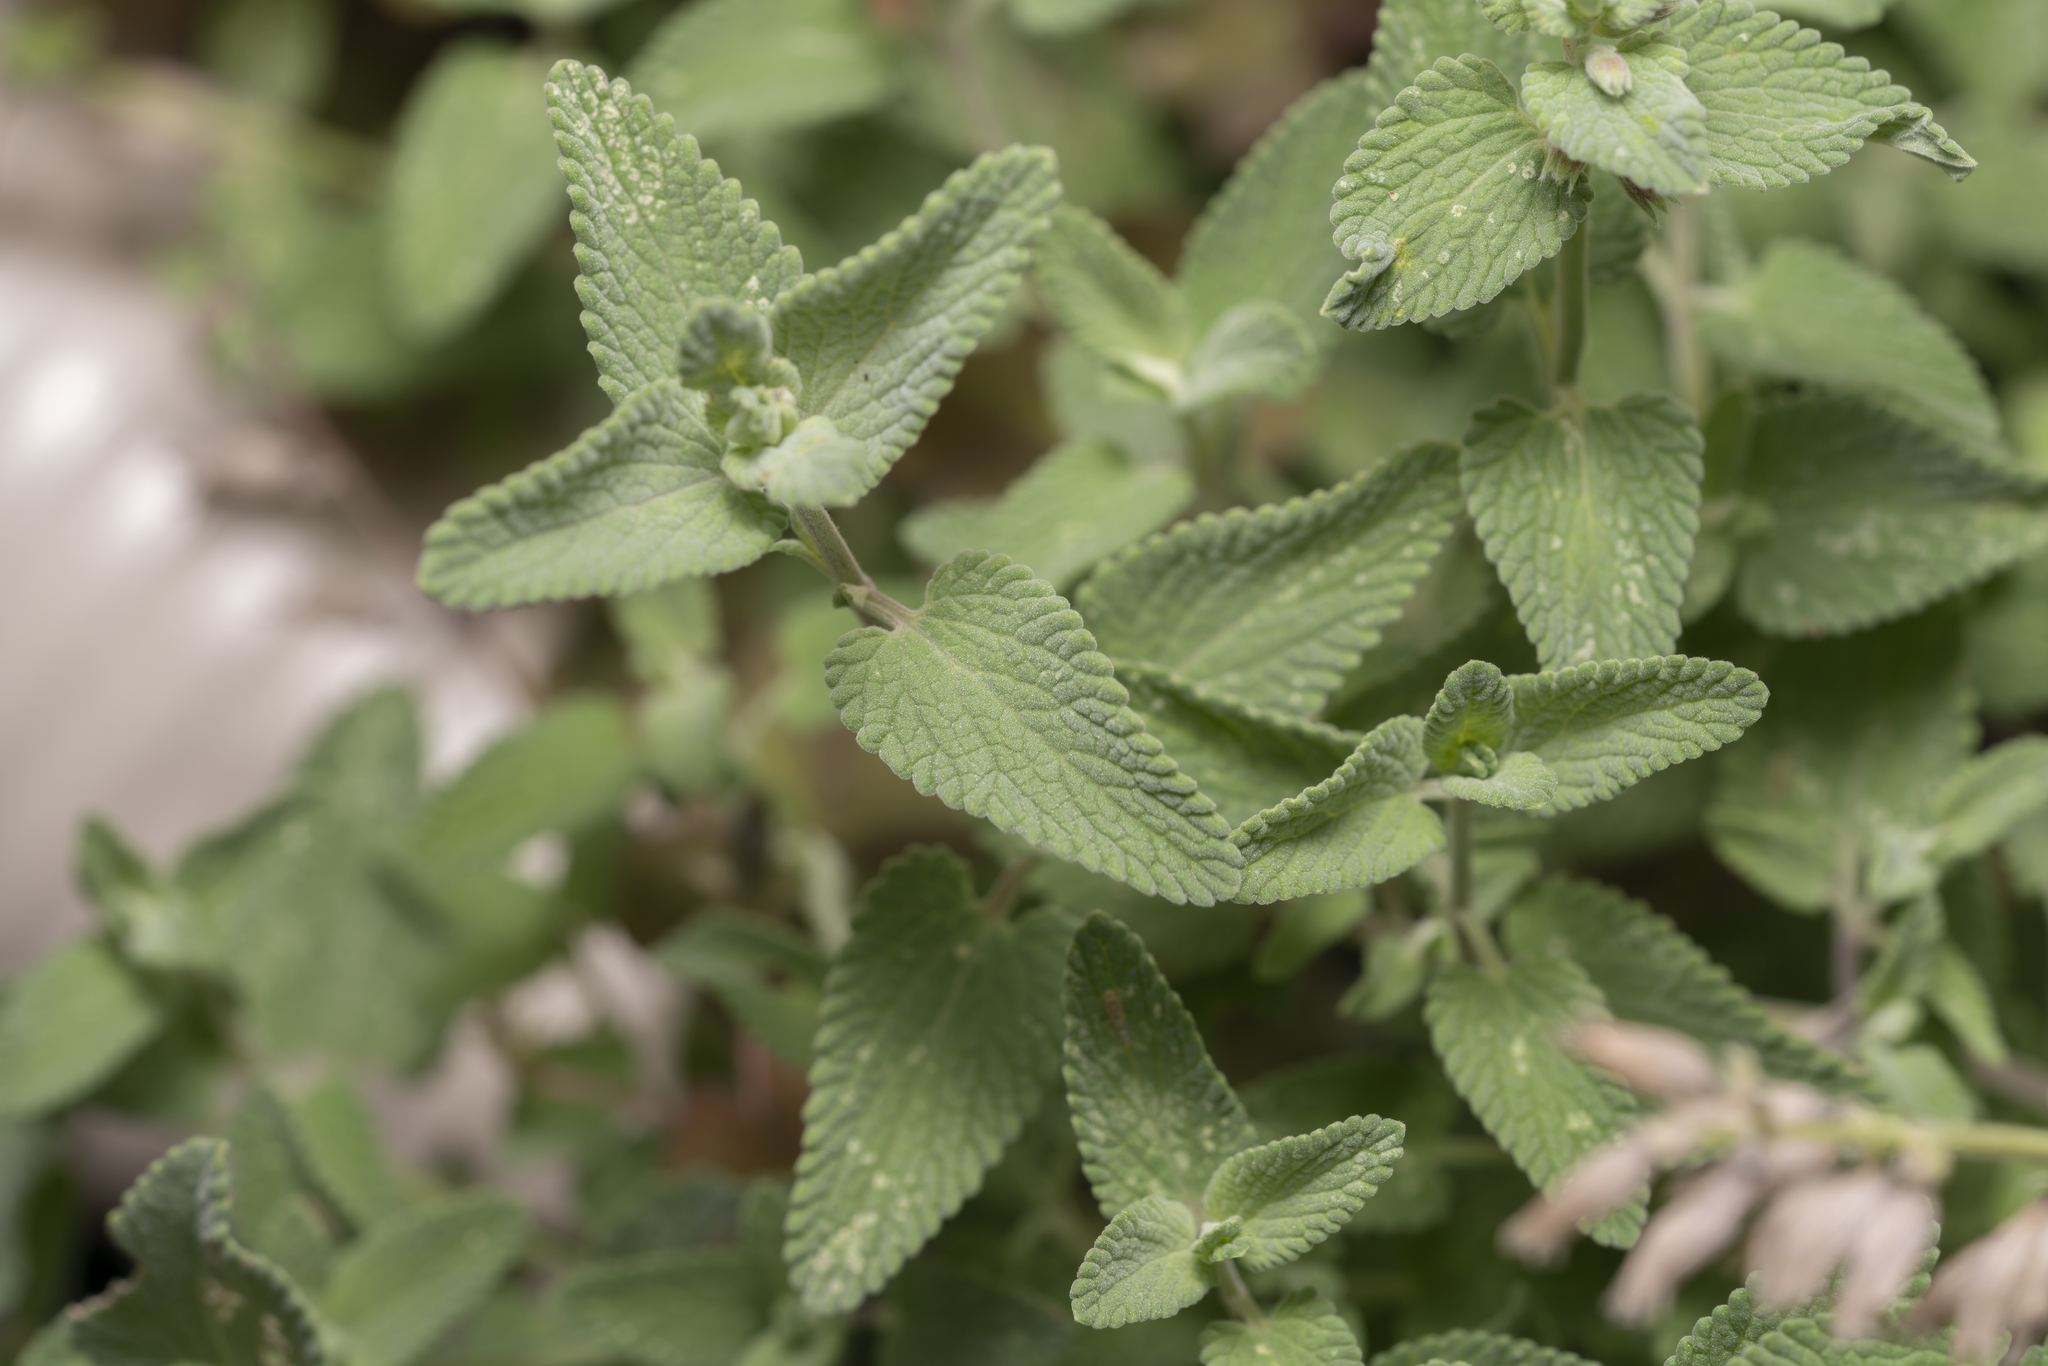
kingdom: Plantae
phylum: Tracheophyta
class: Magnoliopsida
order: Lamiales
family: Lamiaceae
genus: Nepeta
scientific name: Nepeta racemosa
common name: Raceme catnip
